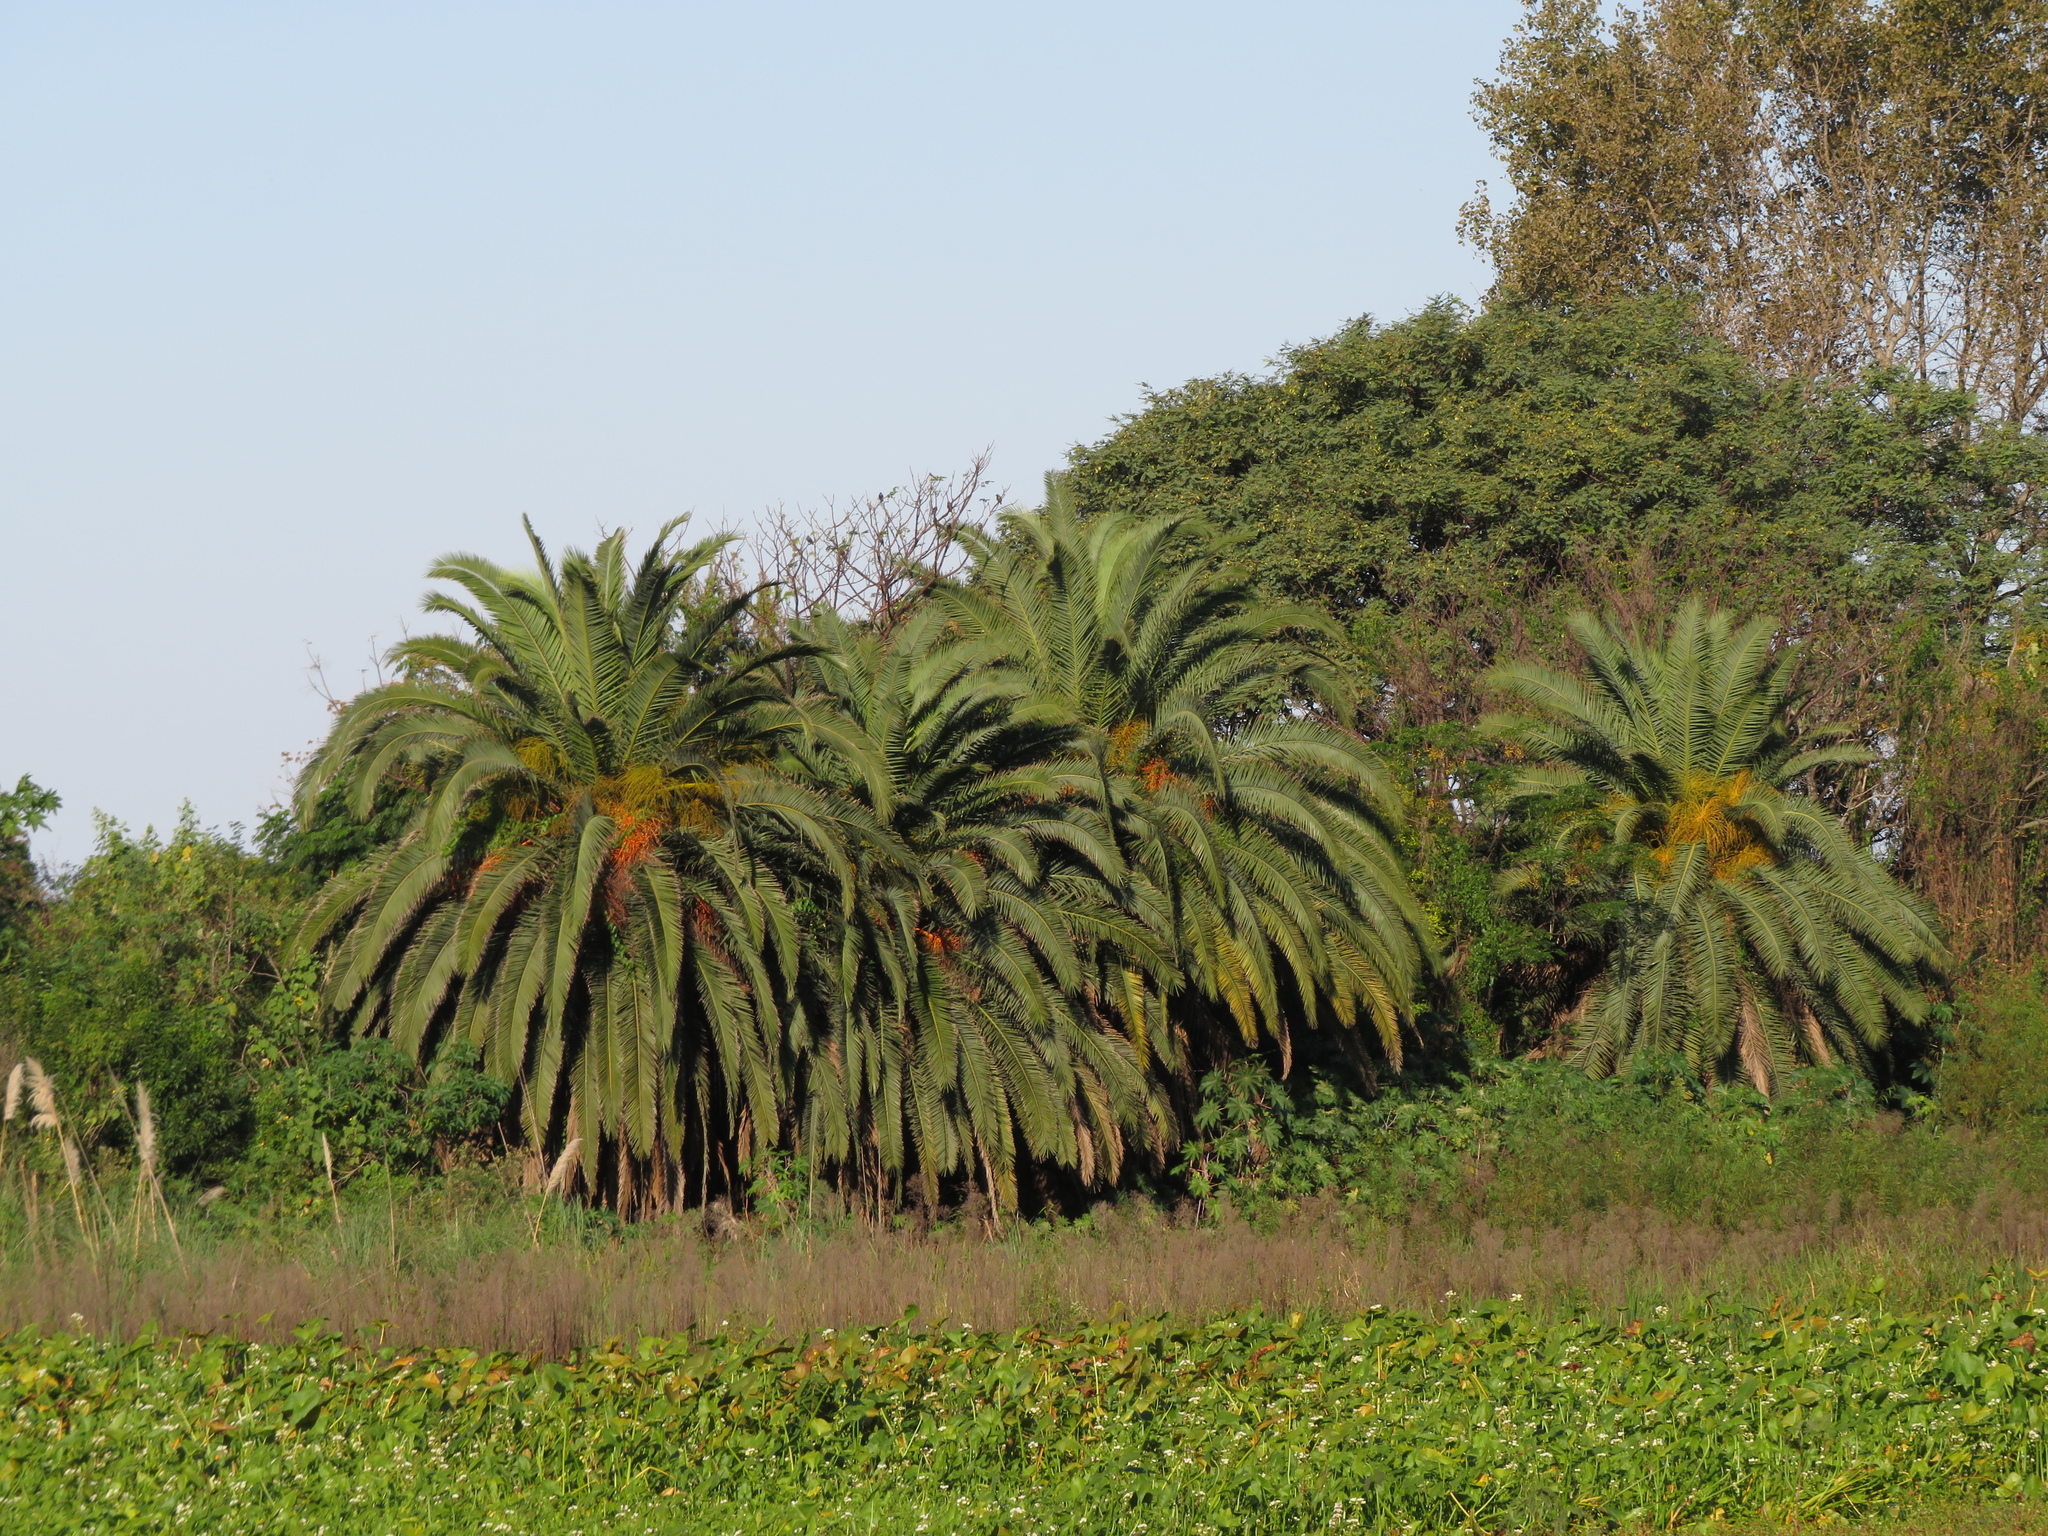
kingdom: Plantae
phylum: Tracheophyta
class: Liliopsida
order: Arecales
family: Arecaceae
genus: Phoenix
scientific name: Phoenix canariensis
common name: Canary island date palm
